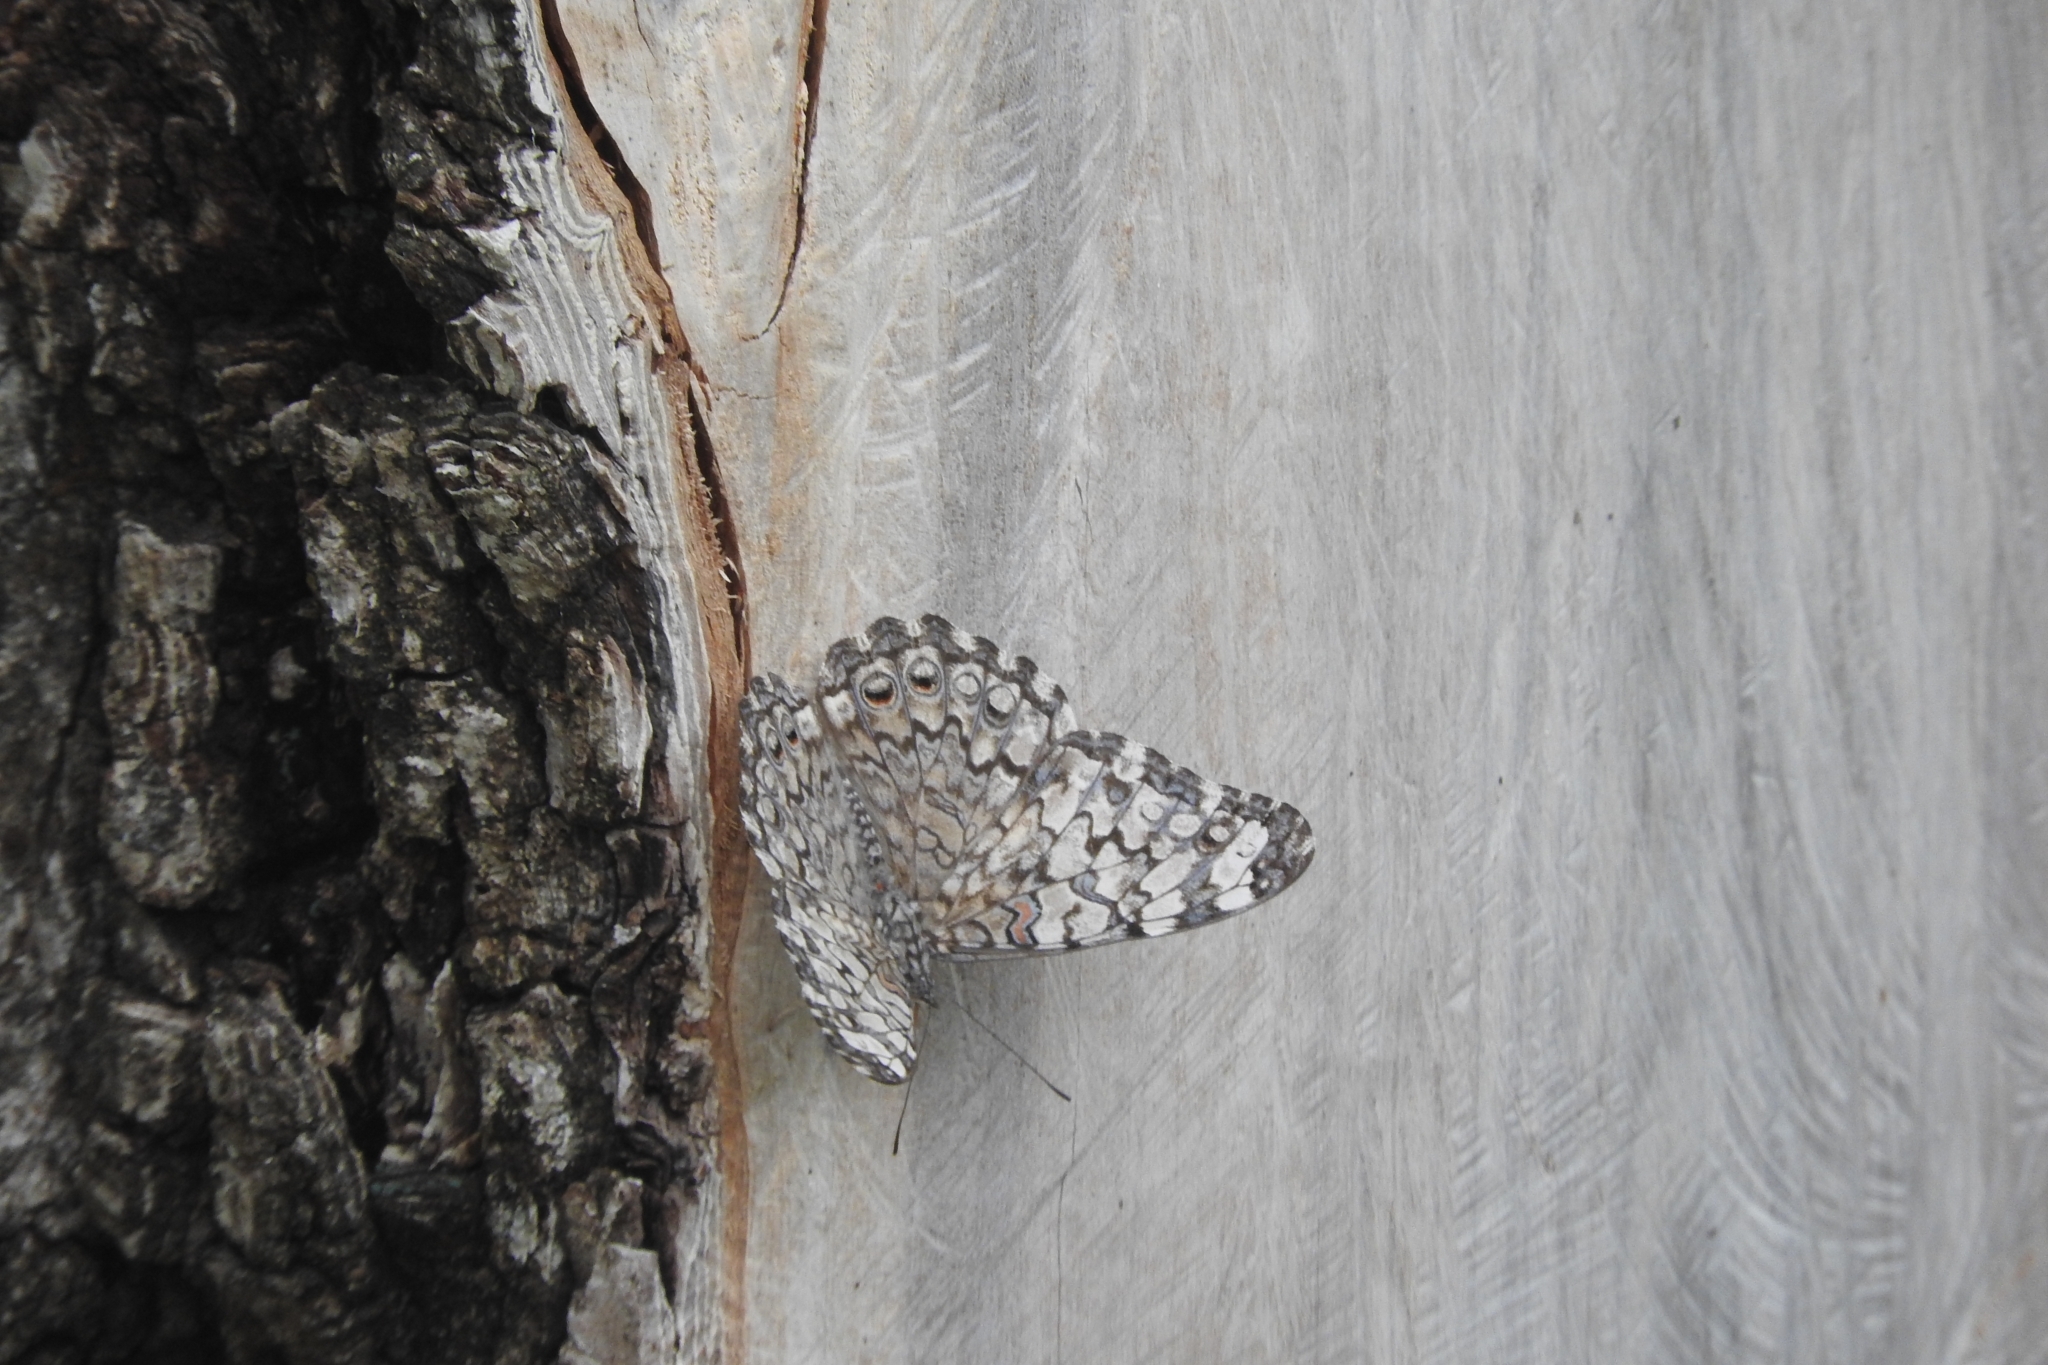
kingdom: Animalia
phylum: Arthropoda
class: Insecta
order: Lepidoptera
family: Nymphalidae
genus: Hamadryas
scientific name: Hamadryas februa
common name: Gray cracker
